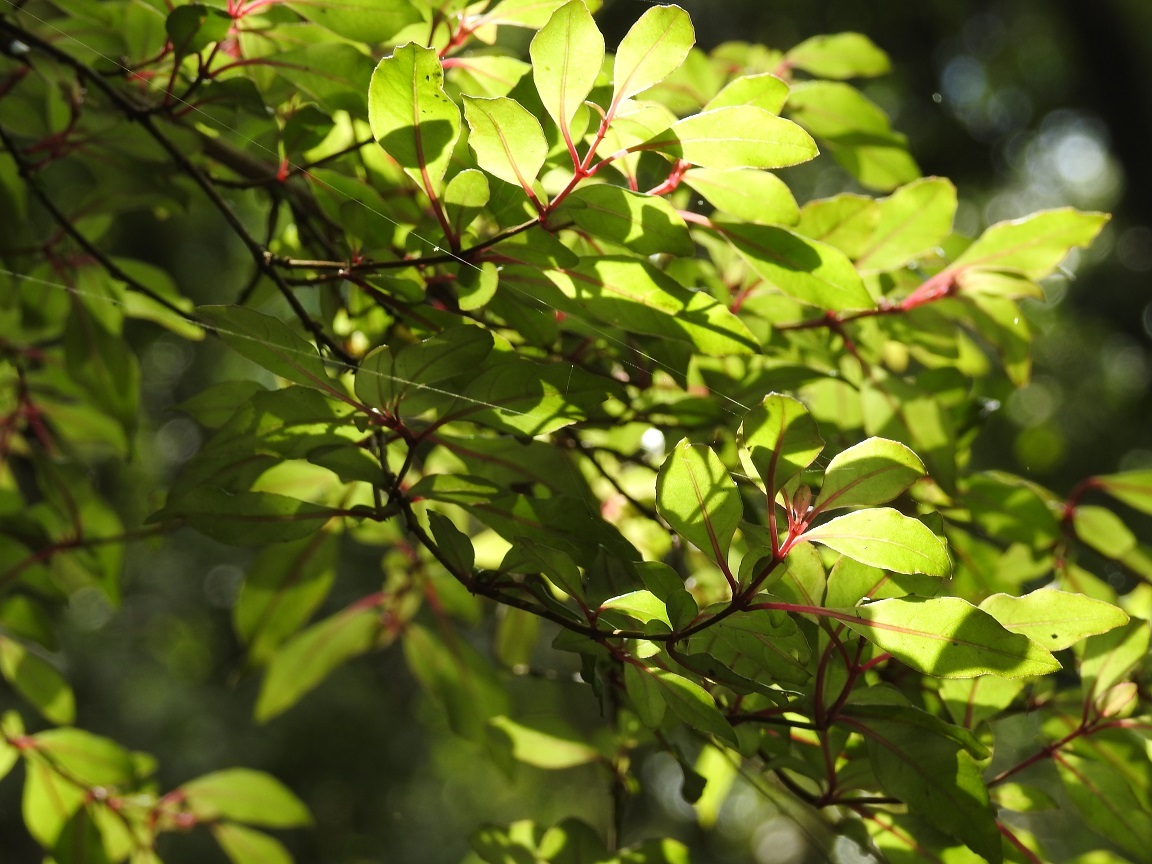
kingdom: Plantae
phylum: Tracheophyta
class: Magnoliopsida
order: Myrtales
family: Onagraceae
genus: Fuchsia
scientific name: Fuchsia thymifolia
